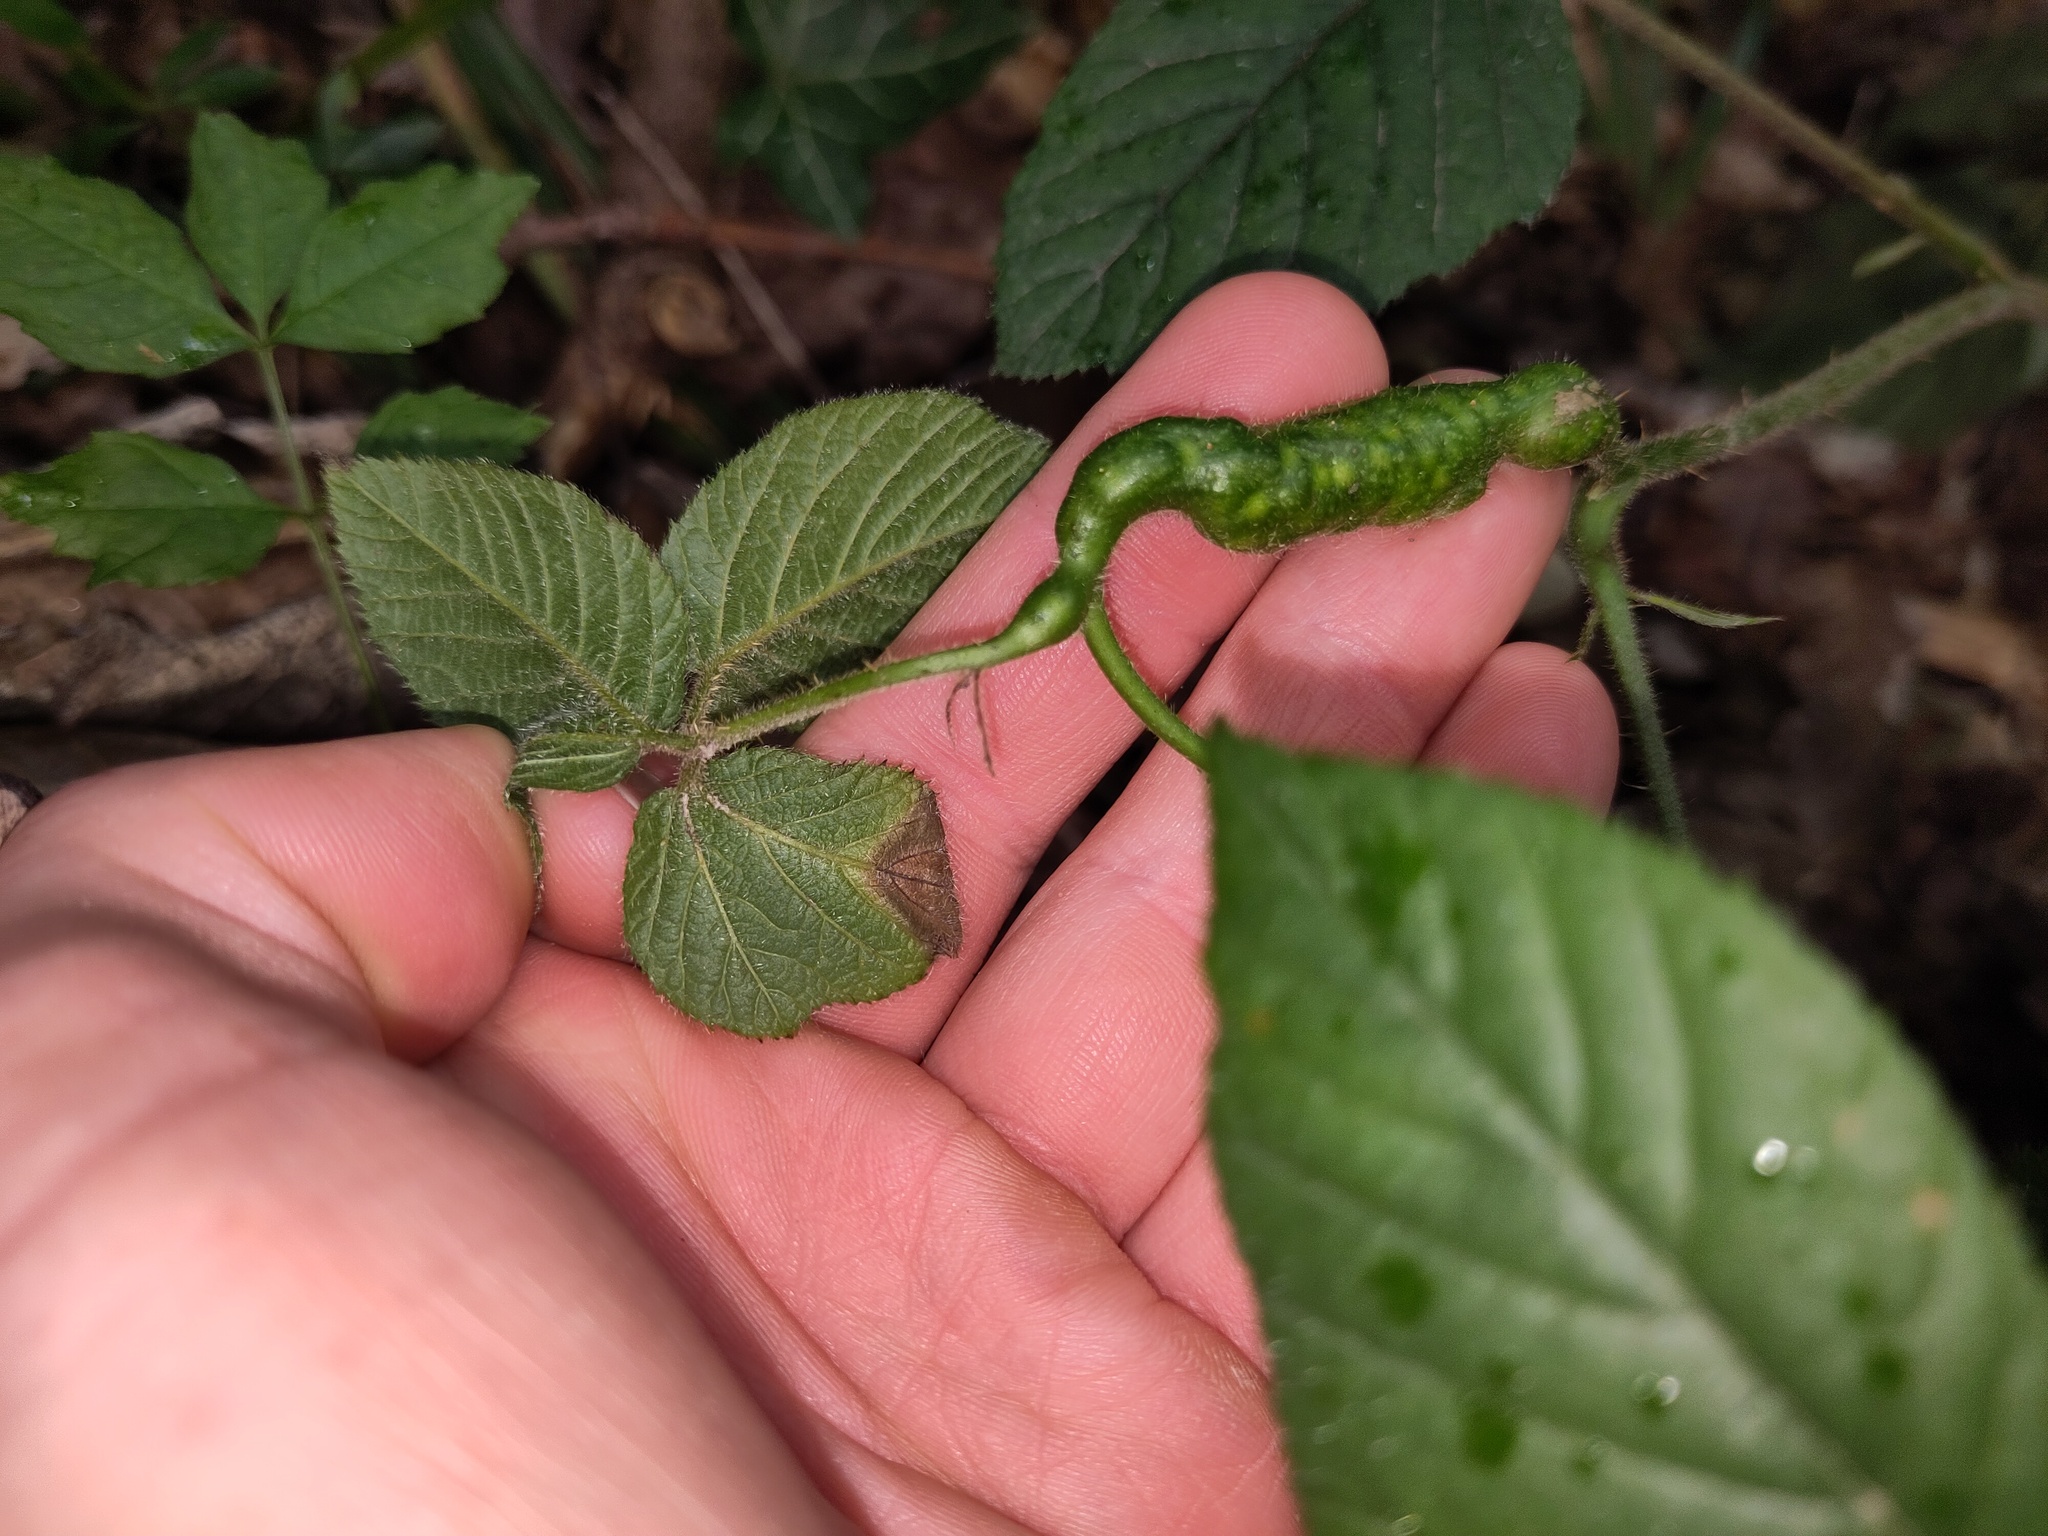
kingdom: Animalia
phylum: Arthropoda
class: Insecta
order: Hymenoptera
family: Cynipidae
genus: Diastrophus
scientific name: Diastrophus rubi
